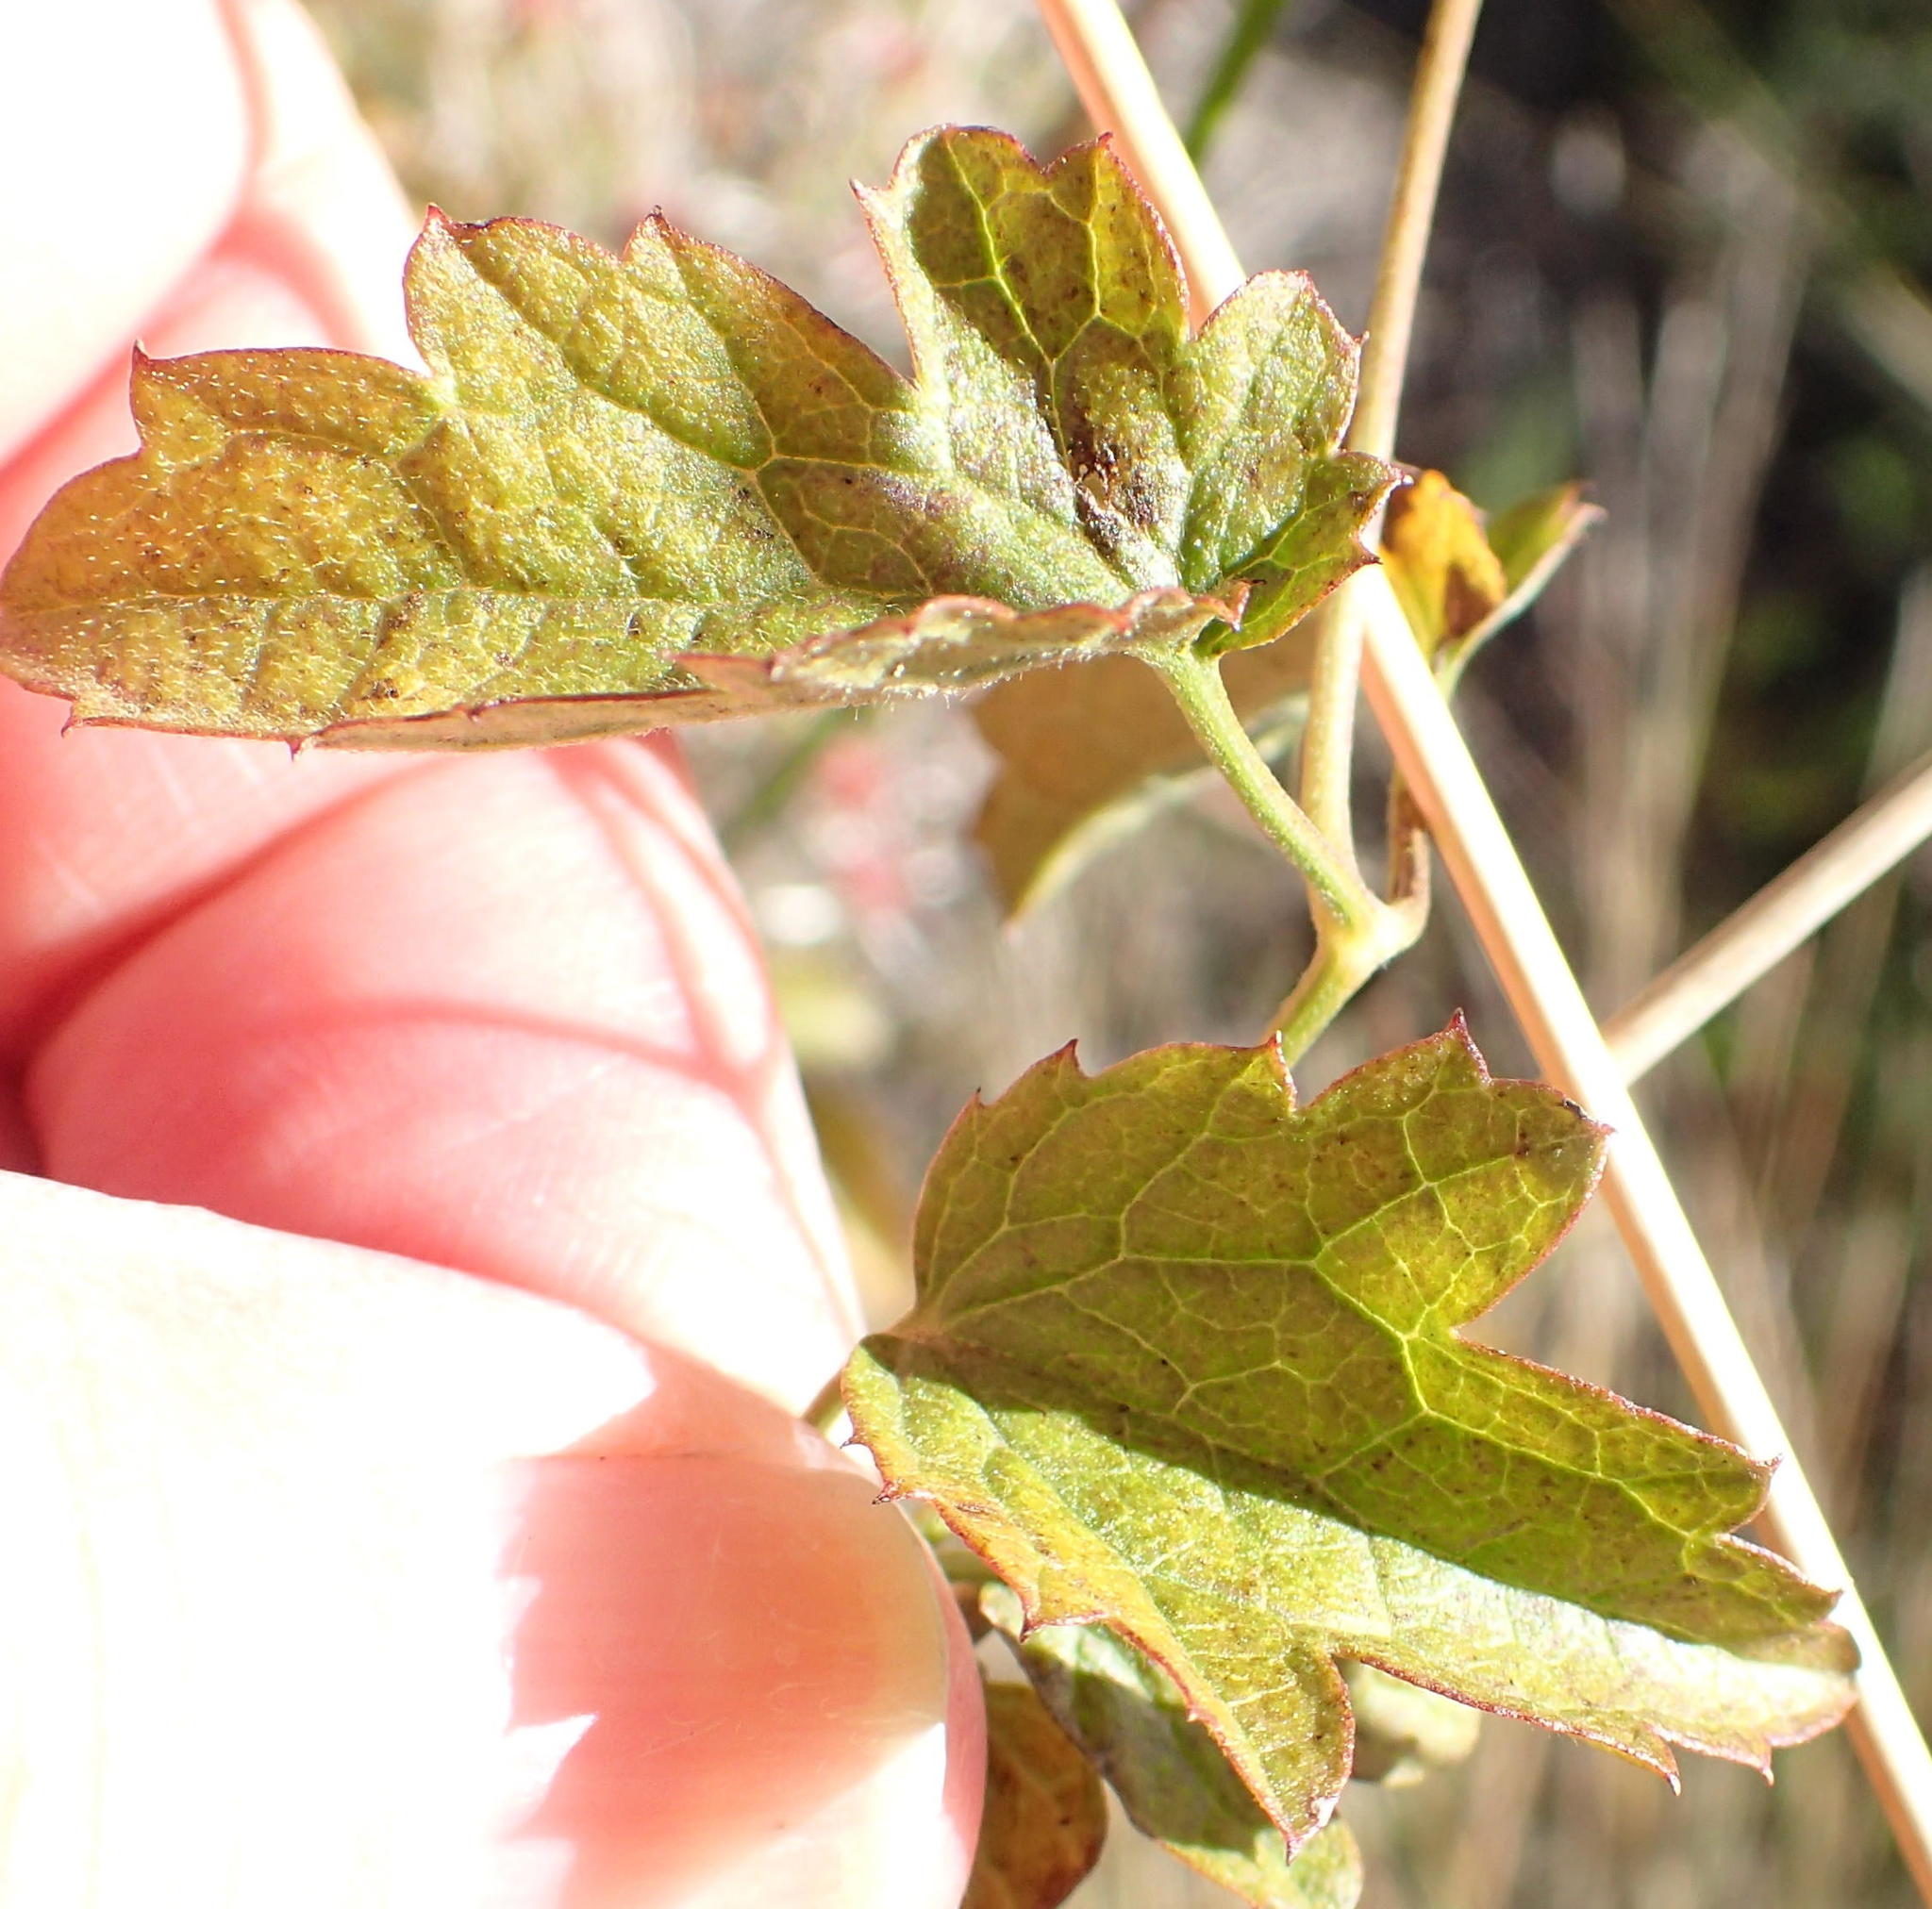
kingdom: Plantae
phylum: Tracheophyta
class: Magnoliopsida
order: Ranunculales
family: Ranunculaceae
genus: Clematis
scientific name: Clematis brachiata
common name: Traveler's-joy
